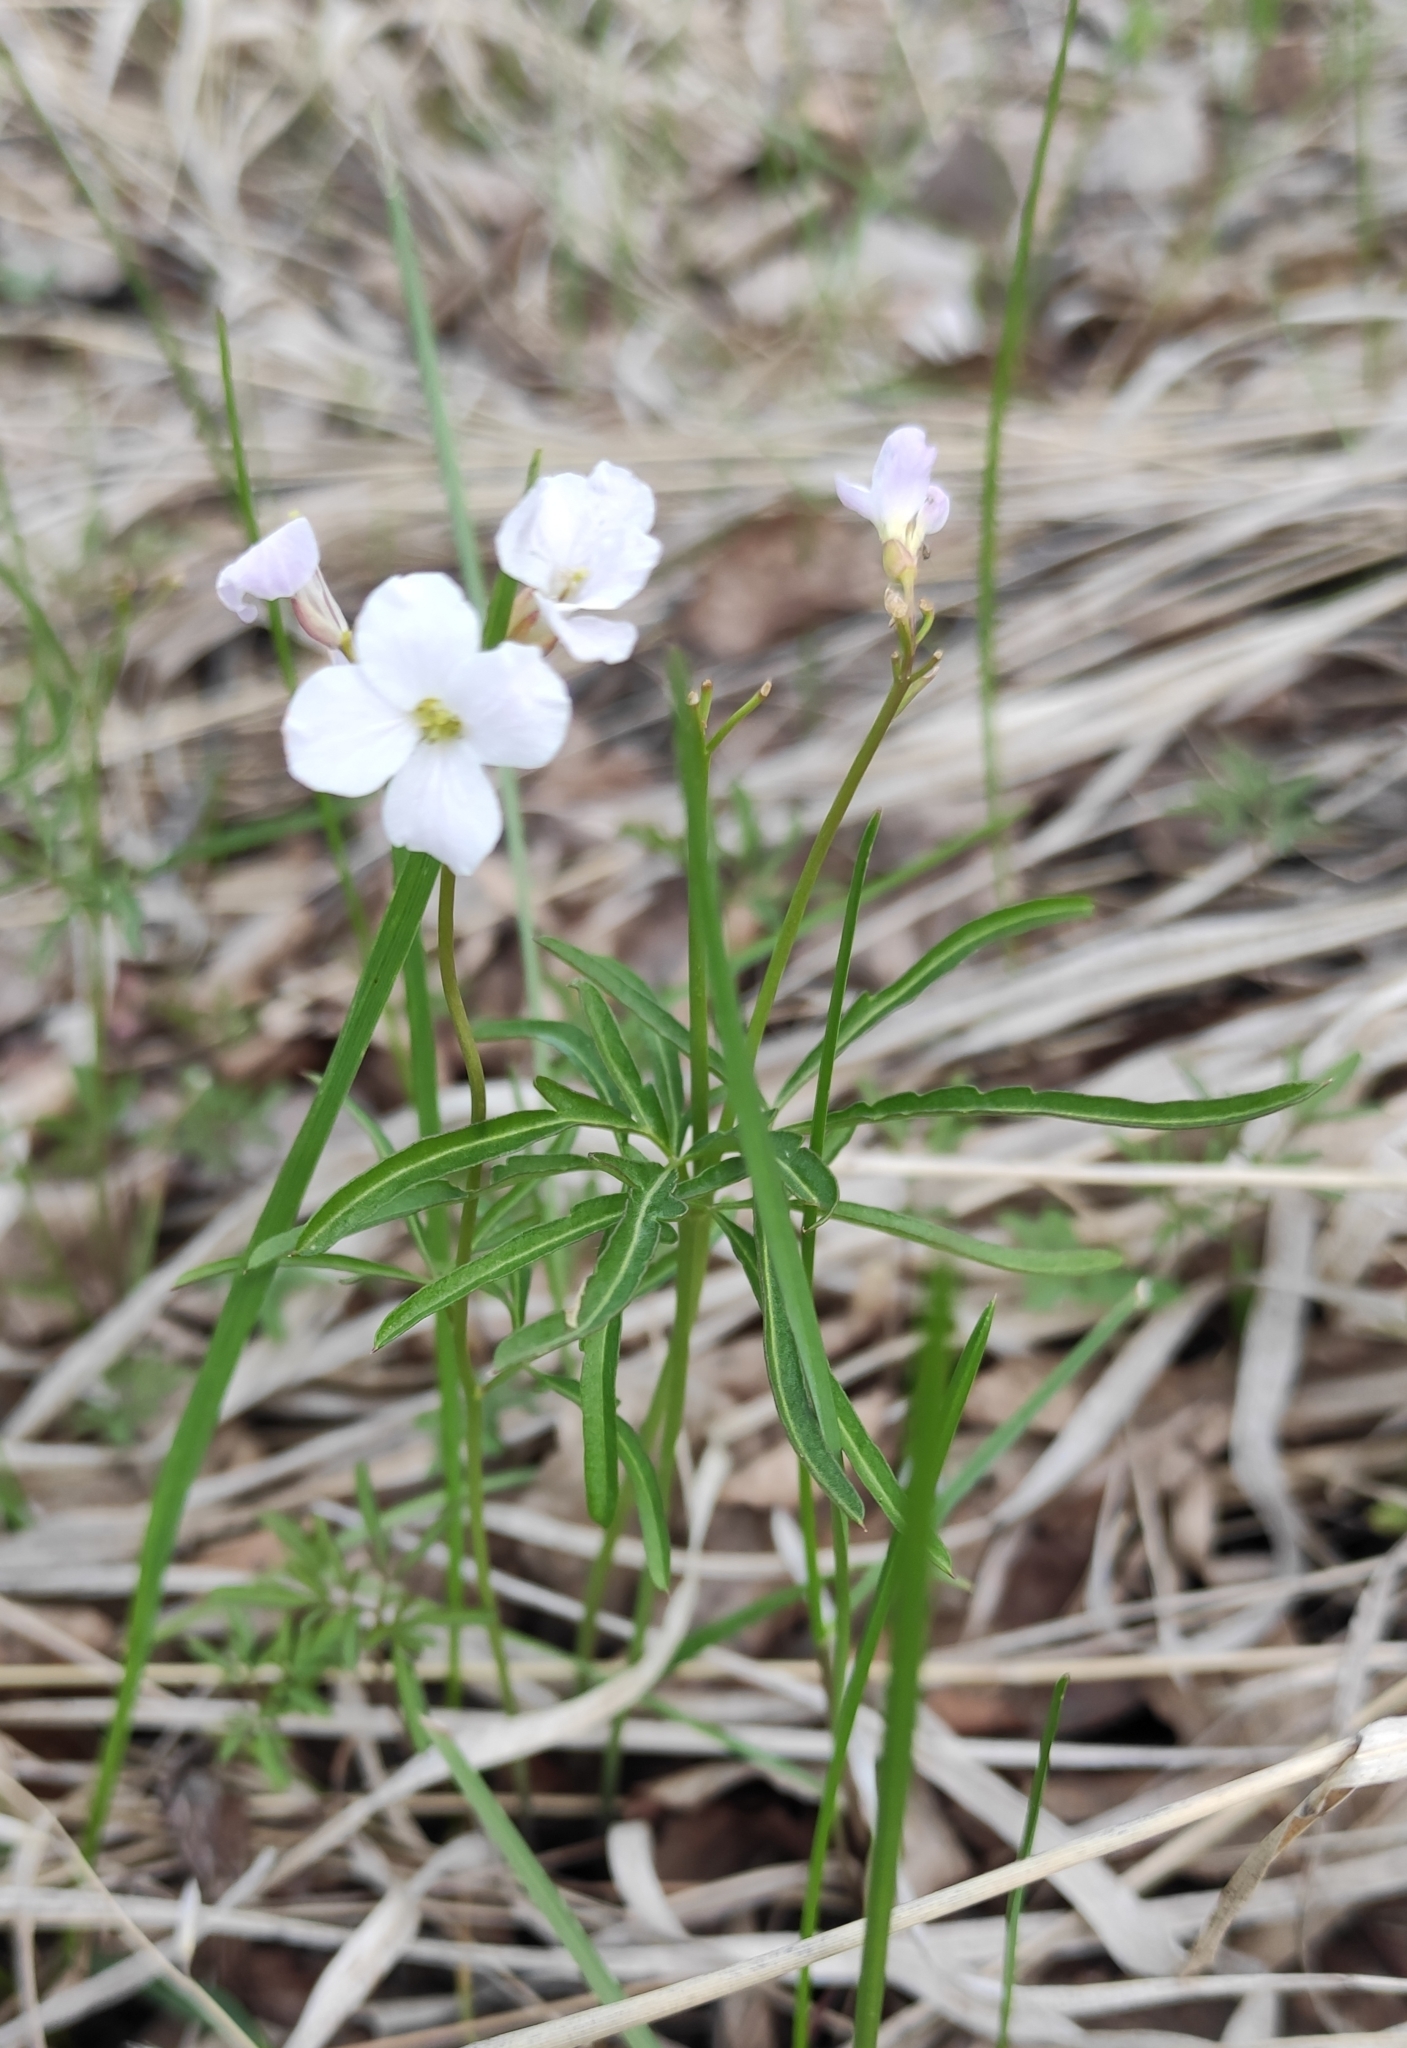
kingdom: Plantae
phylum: Tracheophyta
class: Magnoliopsida
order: Brassicales
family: Brassicaceae
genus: Cardamine
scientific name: Cardamine trifida
